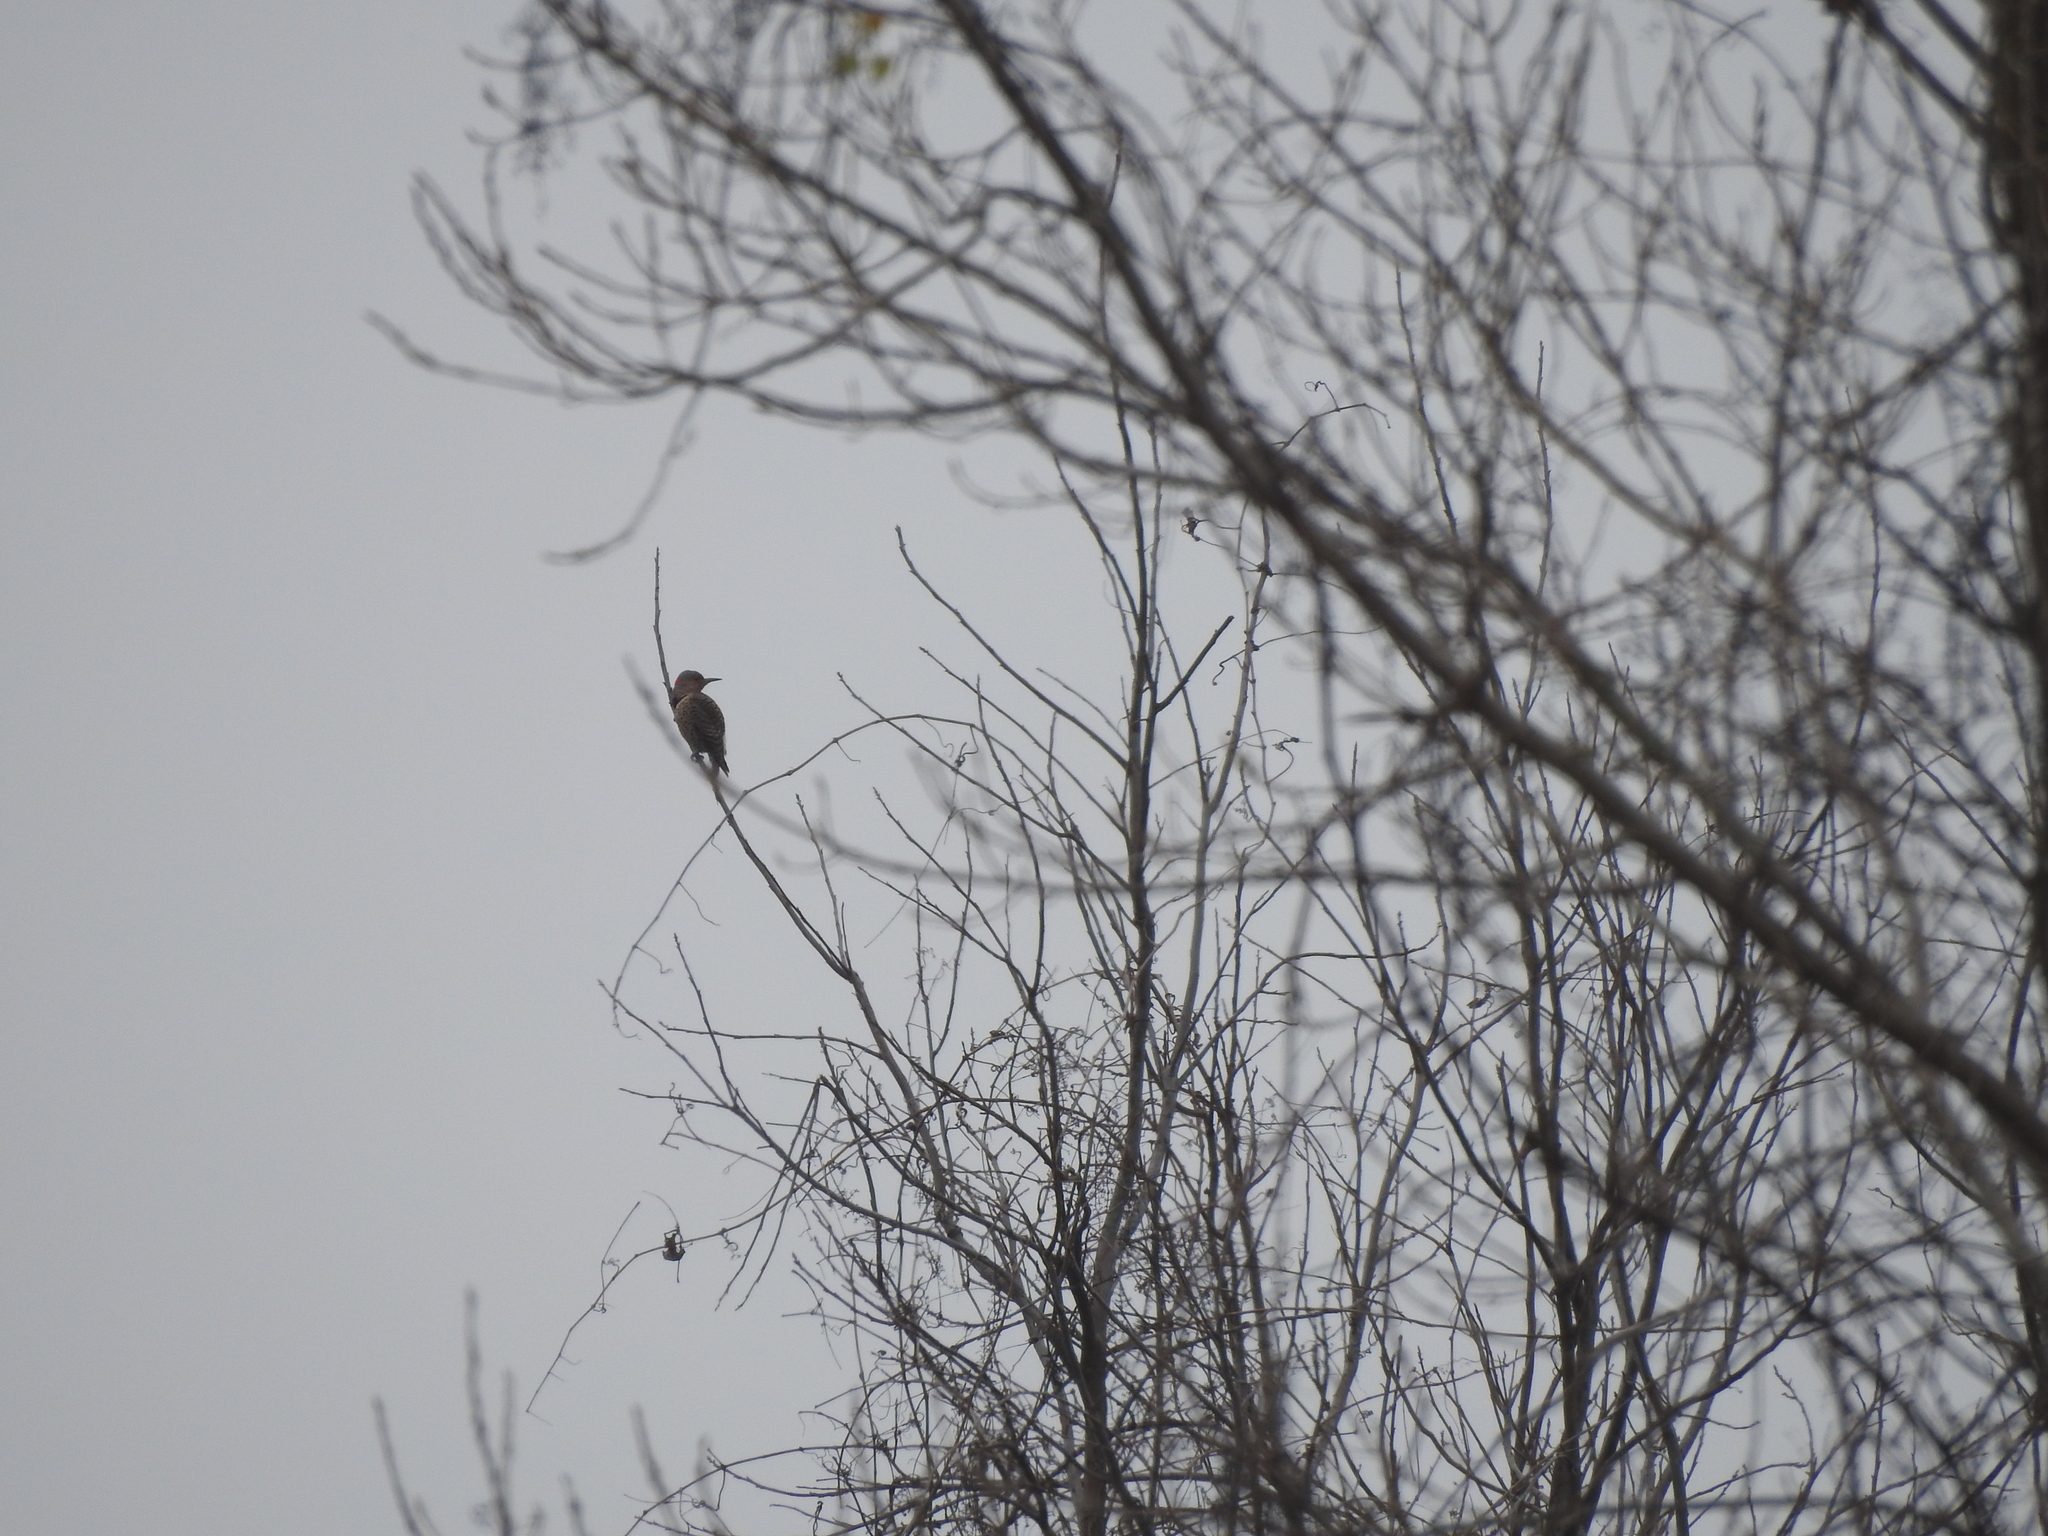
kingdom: Animalia
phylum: Chordata
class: Aves
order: Piciformes
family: Picidae
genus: Colaptes
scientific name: Colaptes auratus
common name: Northern flicker
